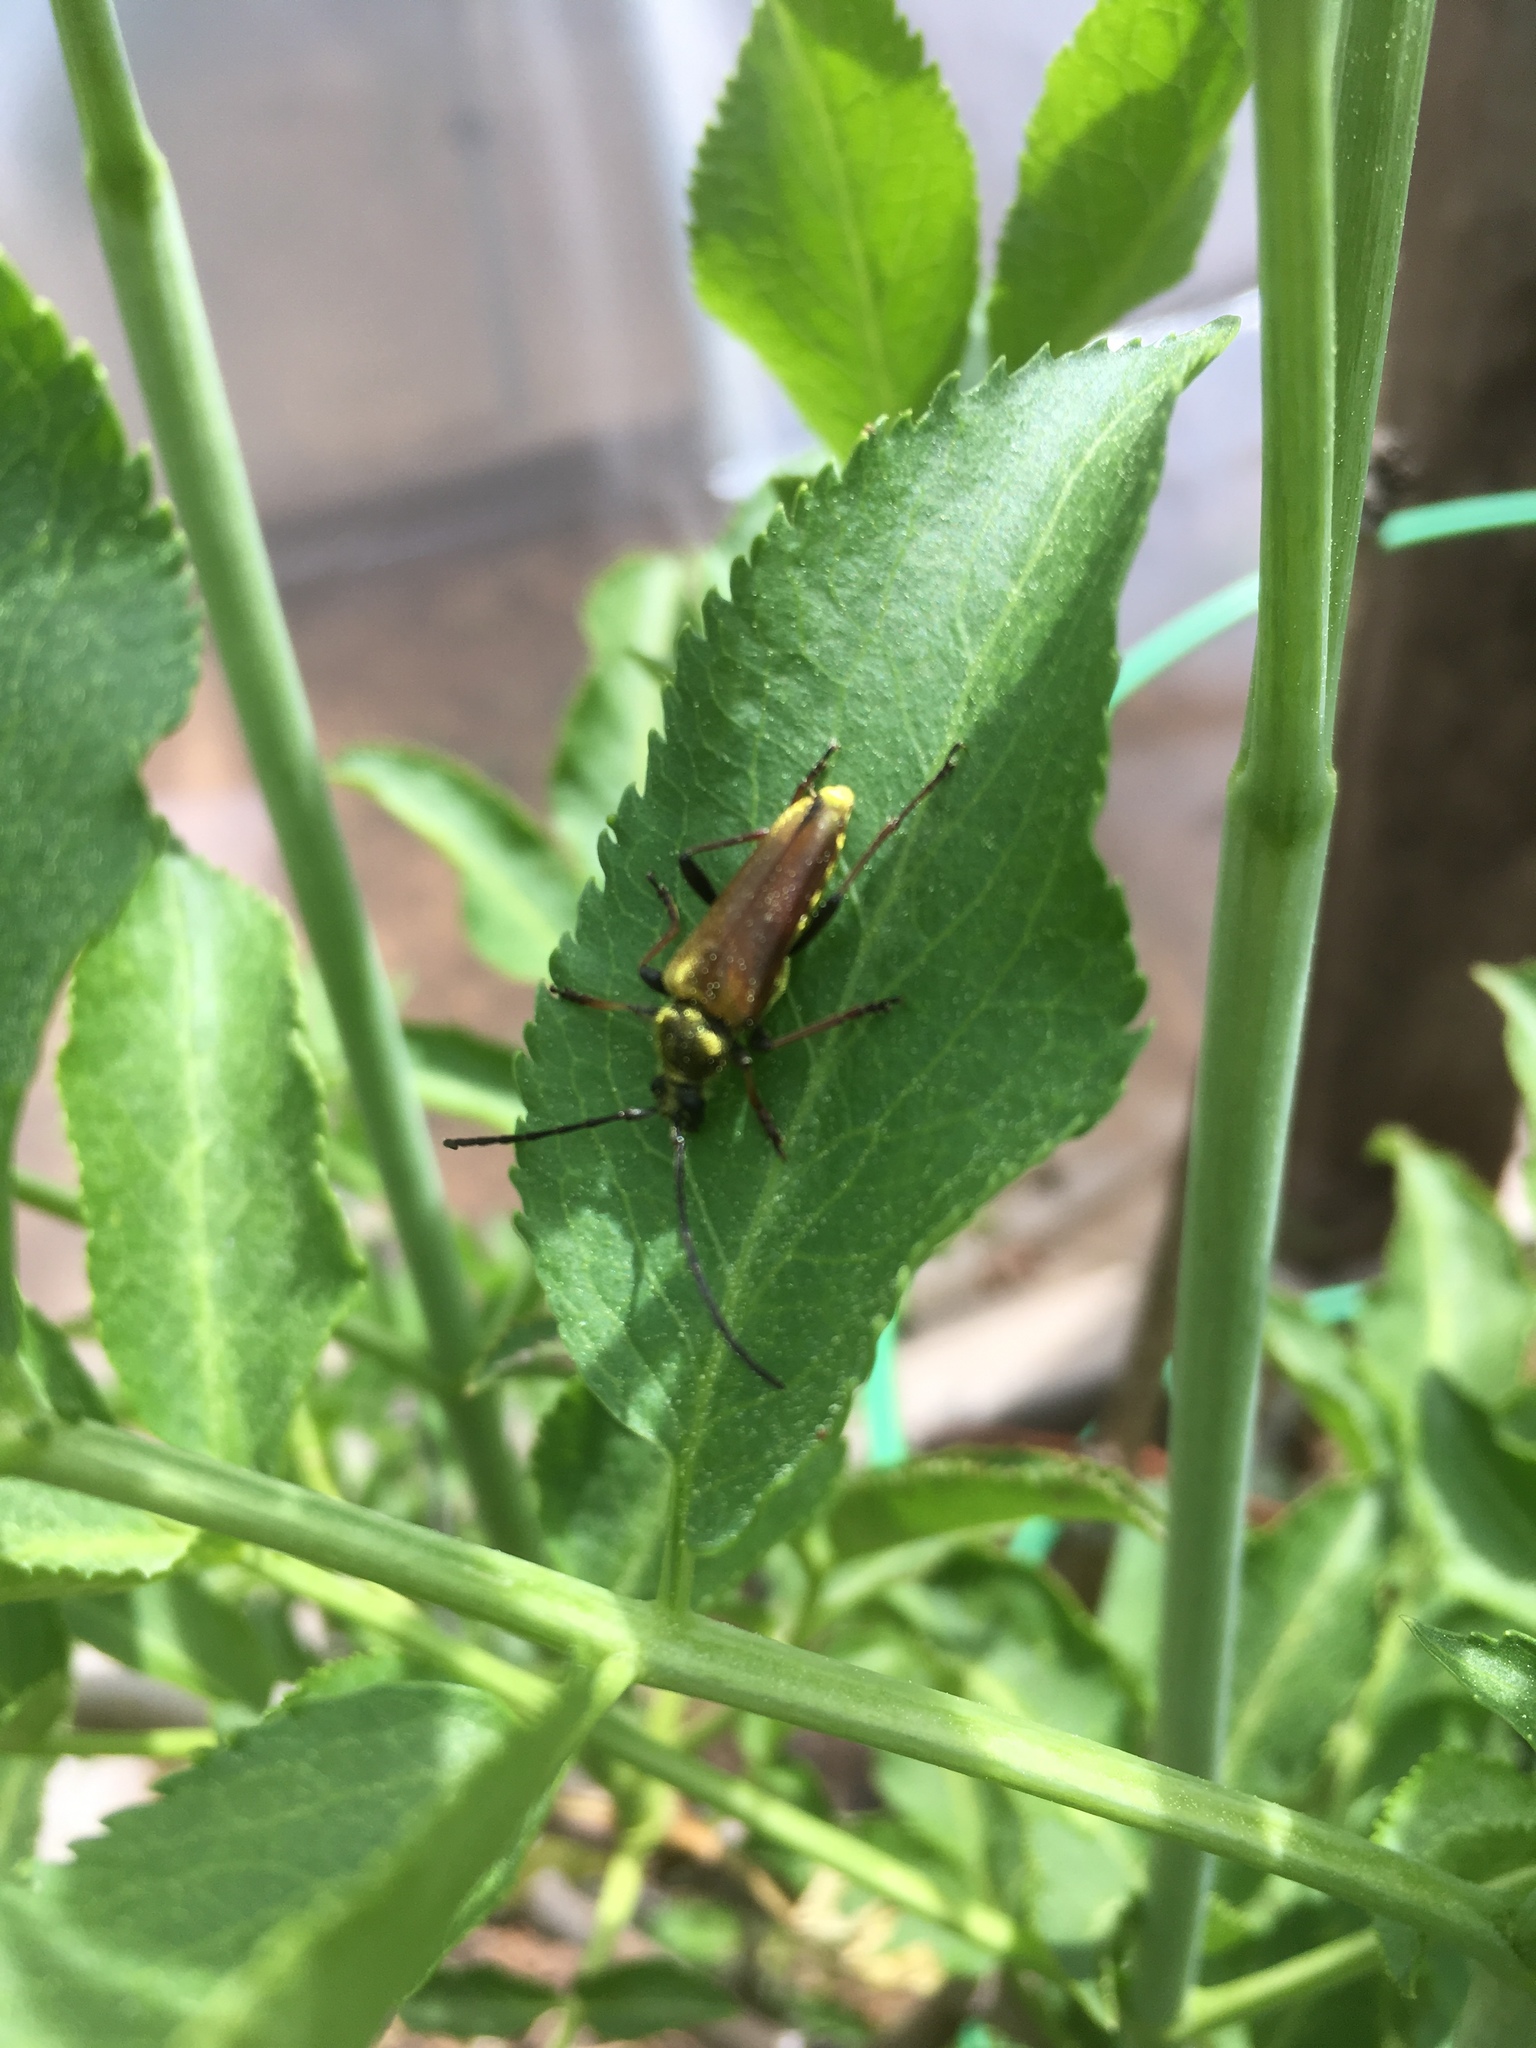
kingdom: Animalia
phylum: Arthropoda
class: Insecta
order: Coleoptera
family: Cerambycidae
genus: Cosmosalia
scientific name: Cosmosalia chrysocoma
